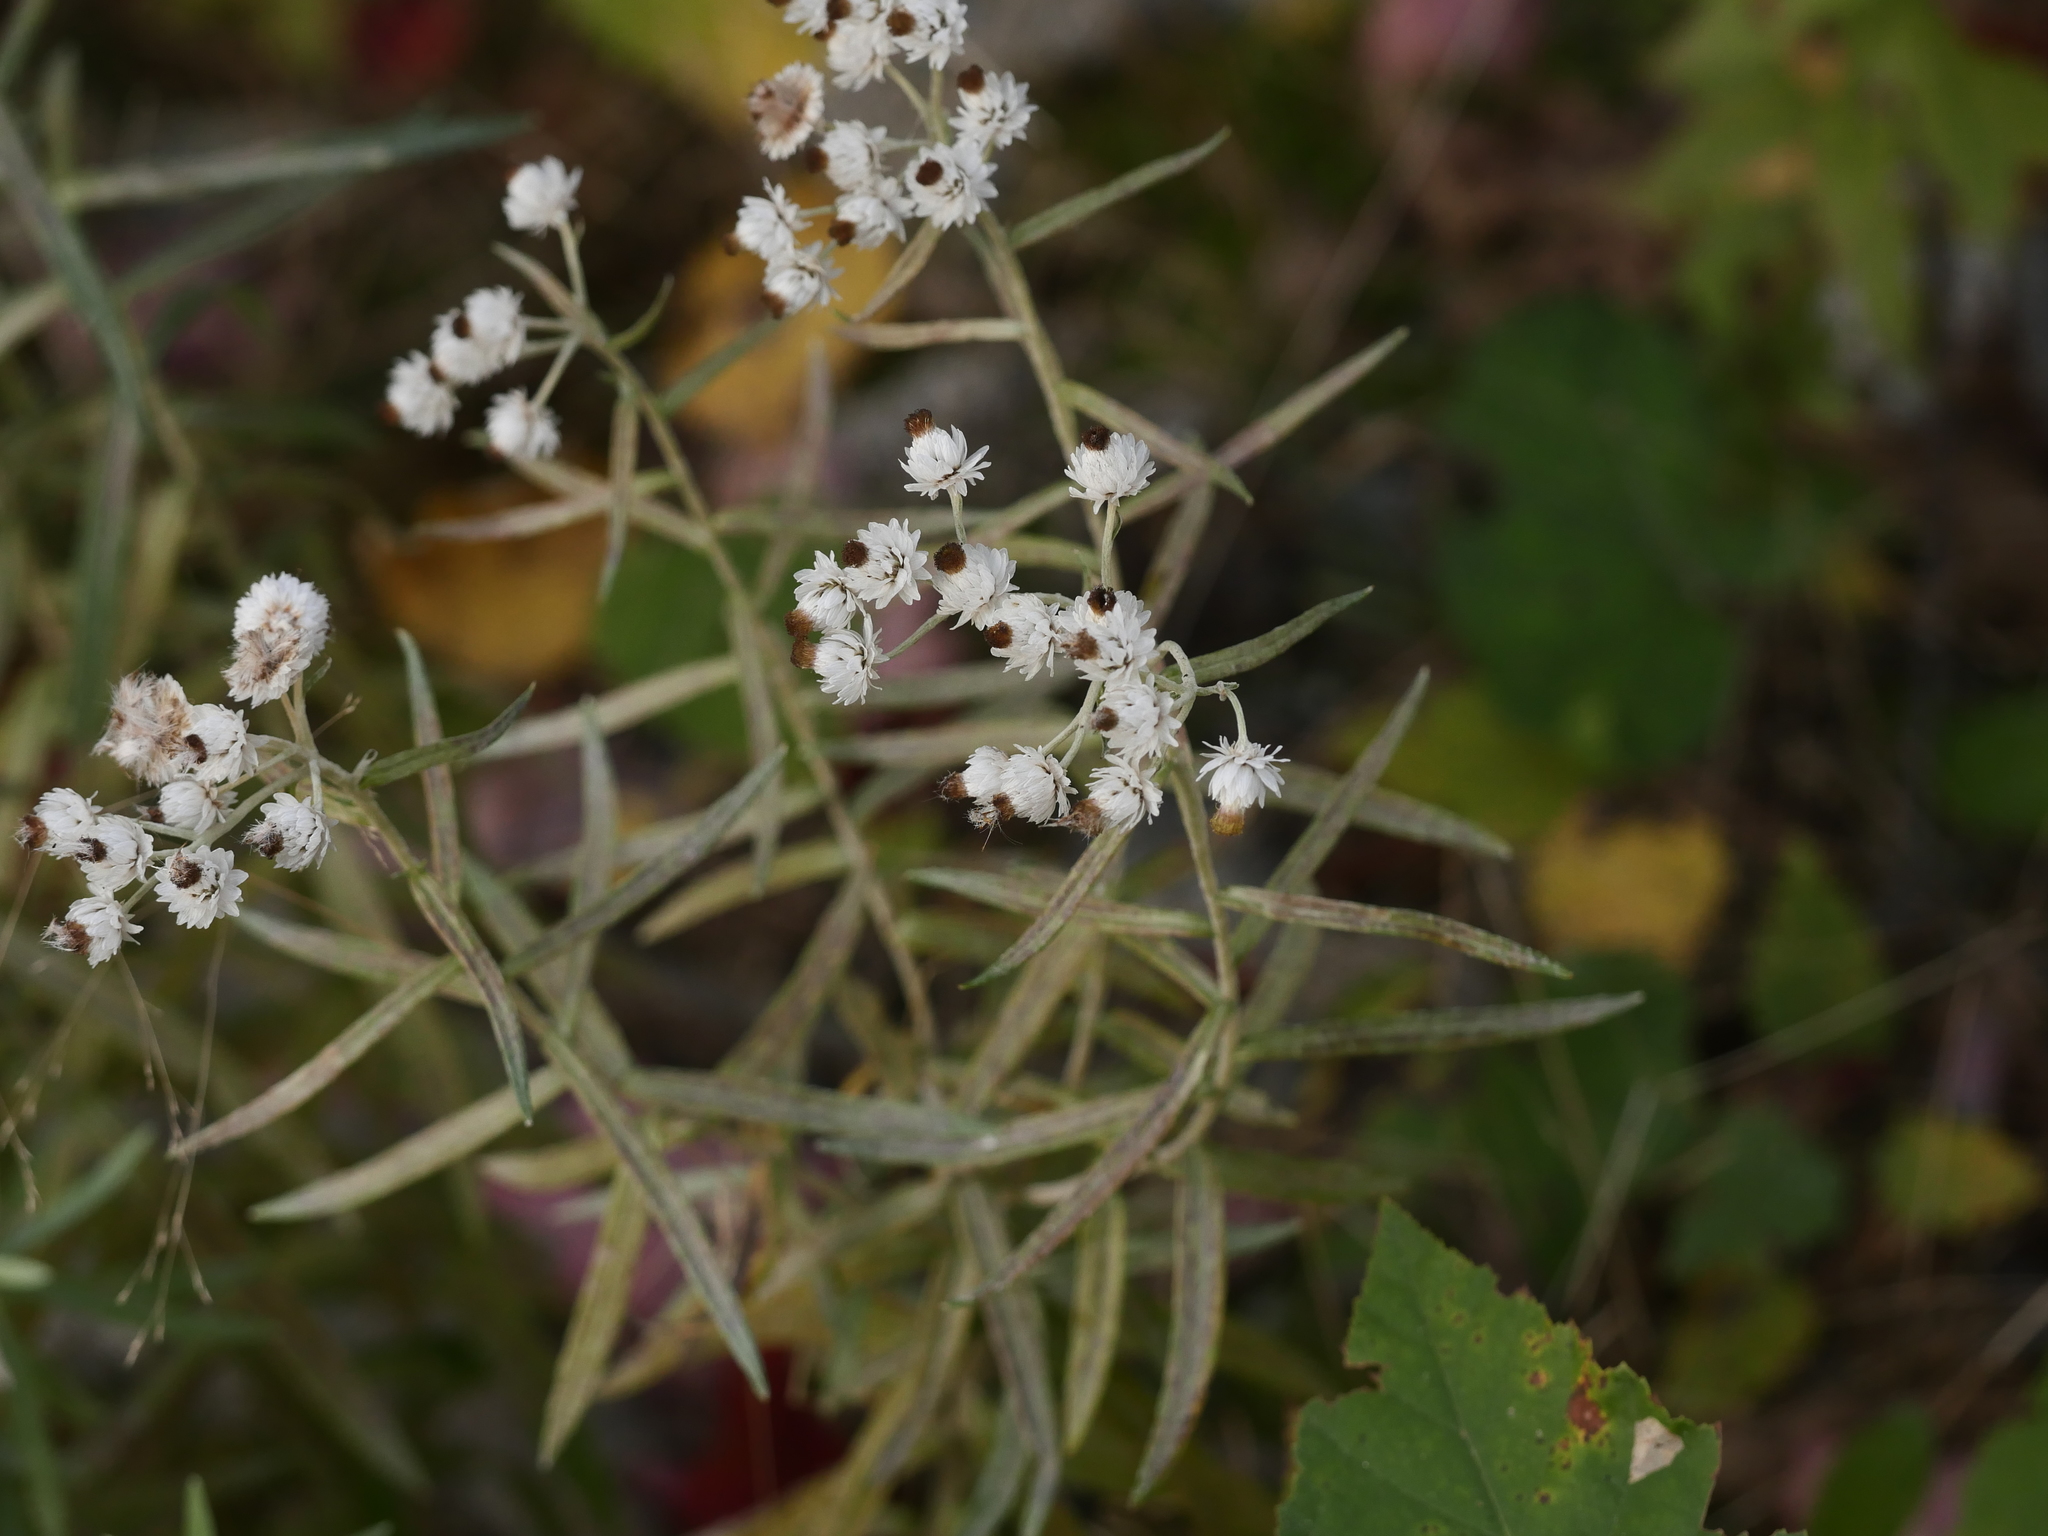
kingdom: Plantae
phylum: Tracheophyta
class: Magnoliopsida
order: Asterales
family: Asteraceae
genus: Anaphalis
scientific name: Anaphalis margaritacea
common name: Pearly everlasting
